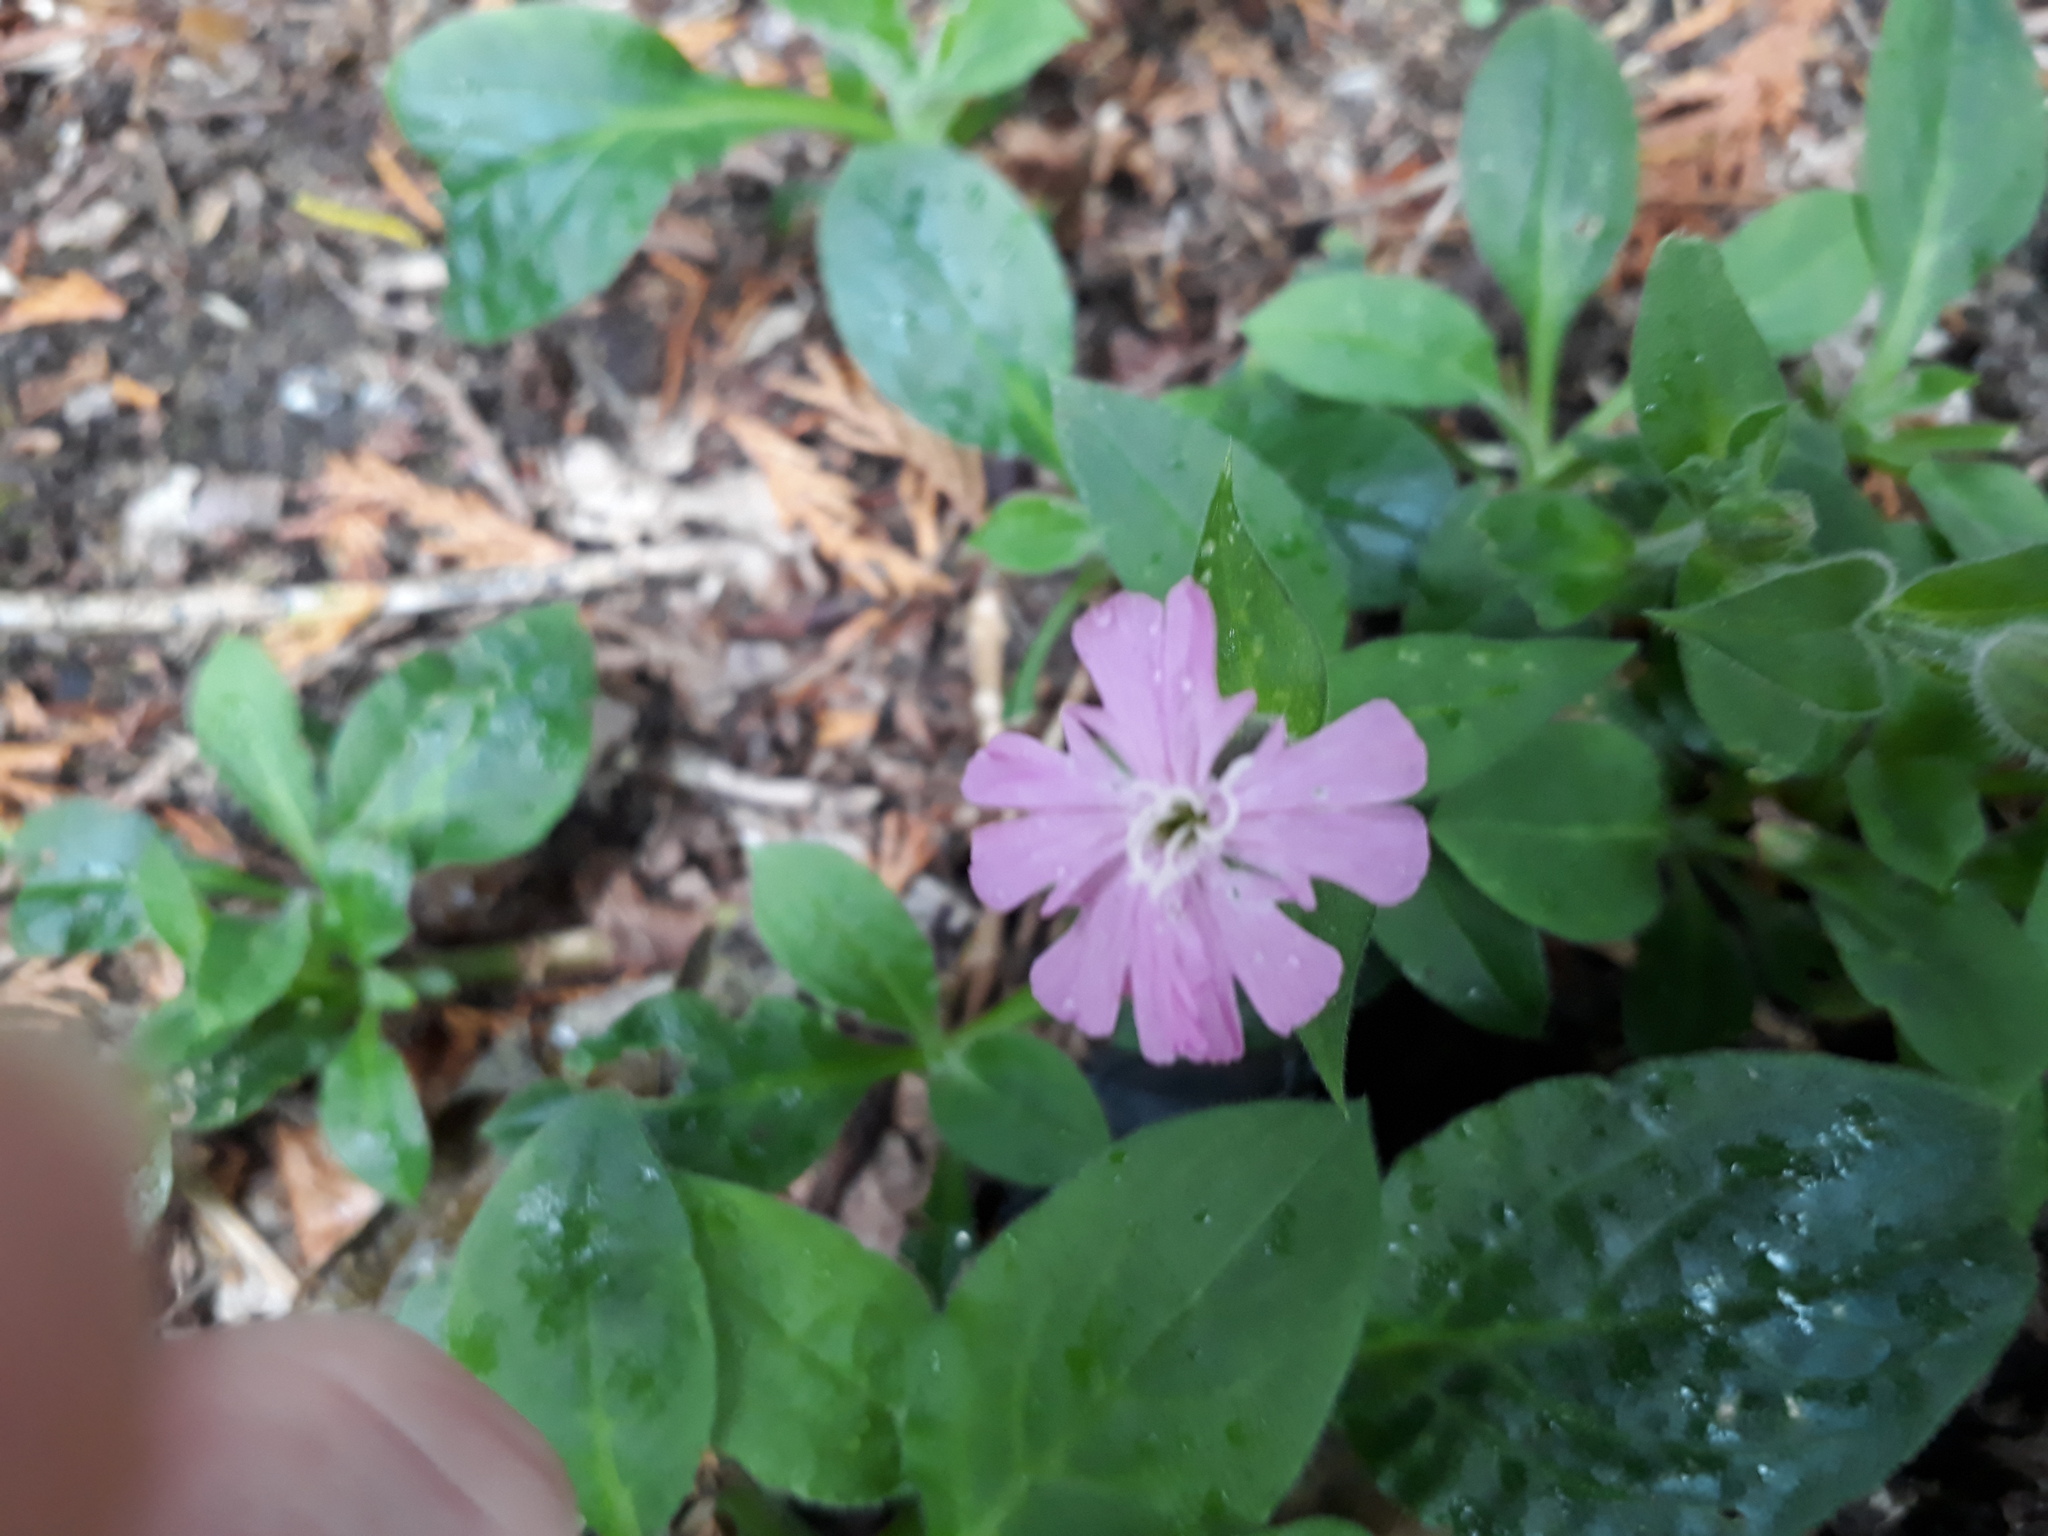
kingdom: Plantae
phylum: Tracheophyta
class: Magnoliopsida
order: Caryophyllales
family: Caryophyllaceae
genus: Silene
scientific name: Silene dioica
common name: Red campion
